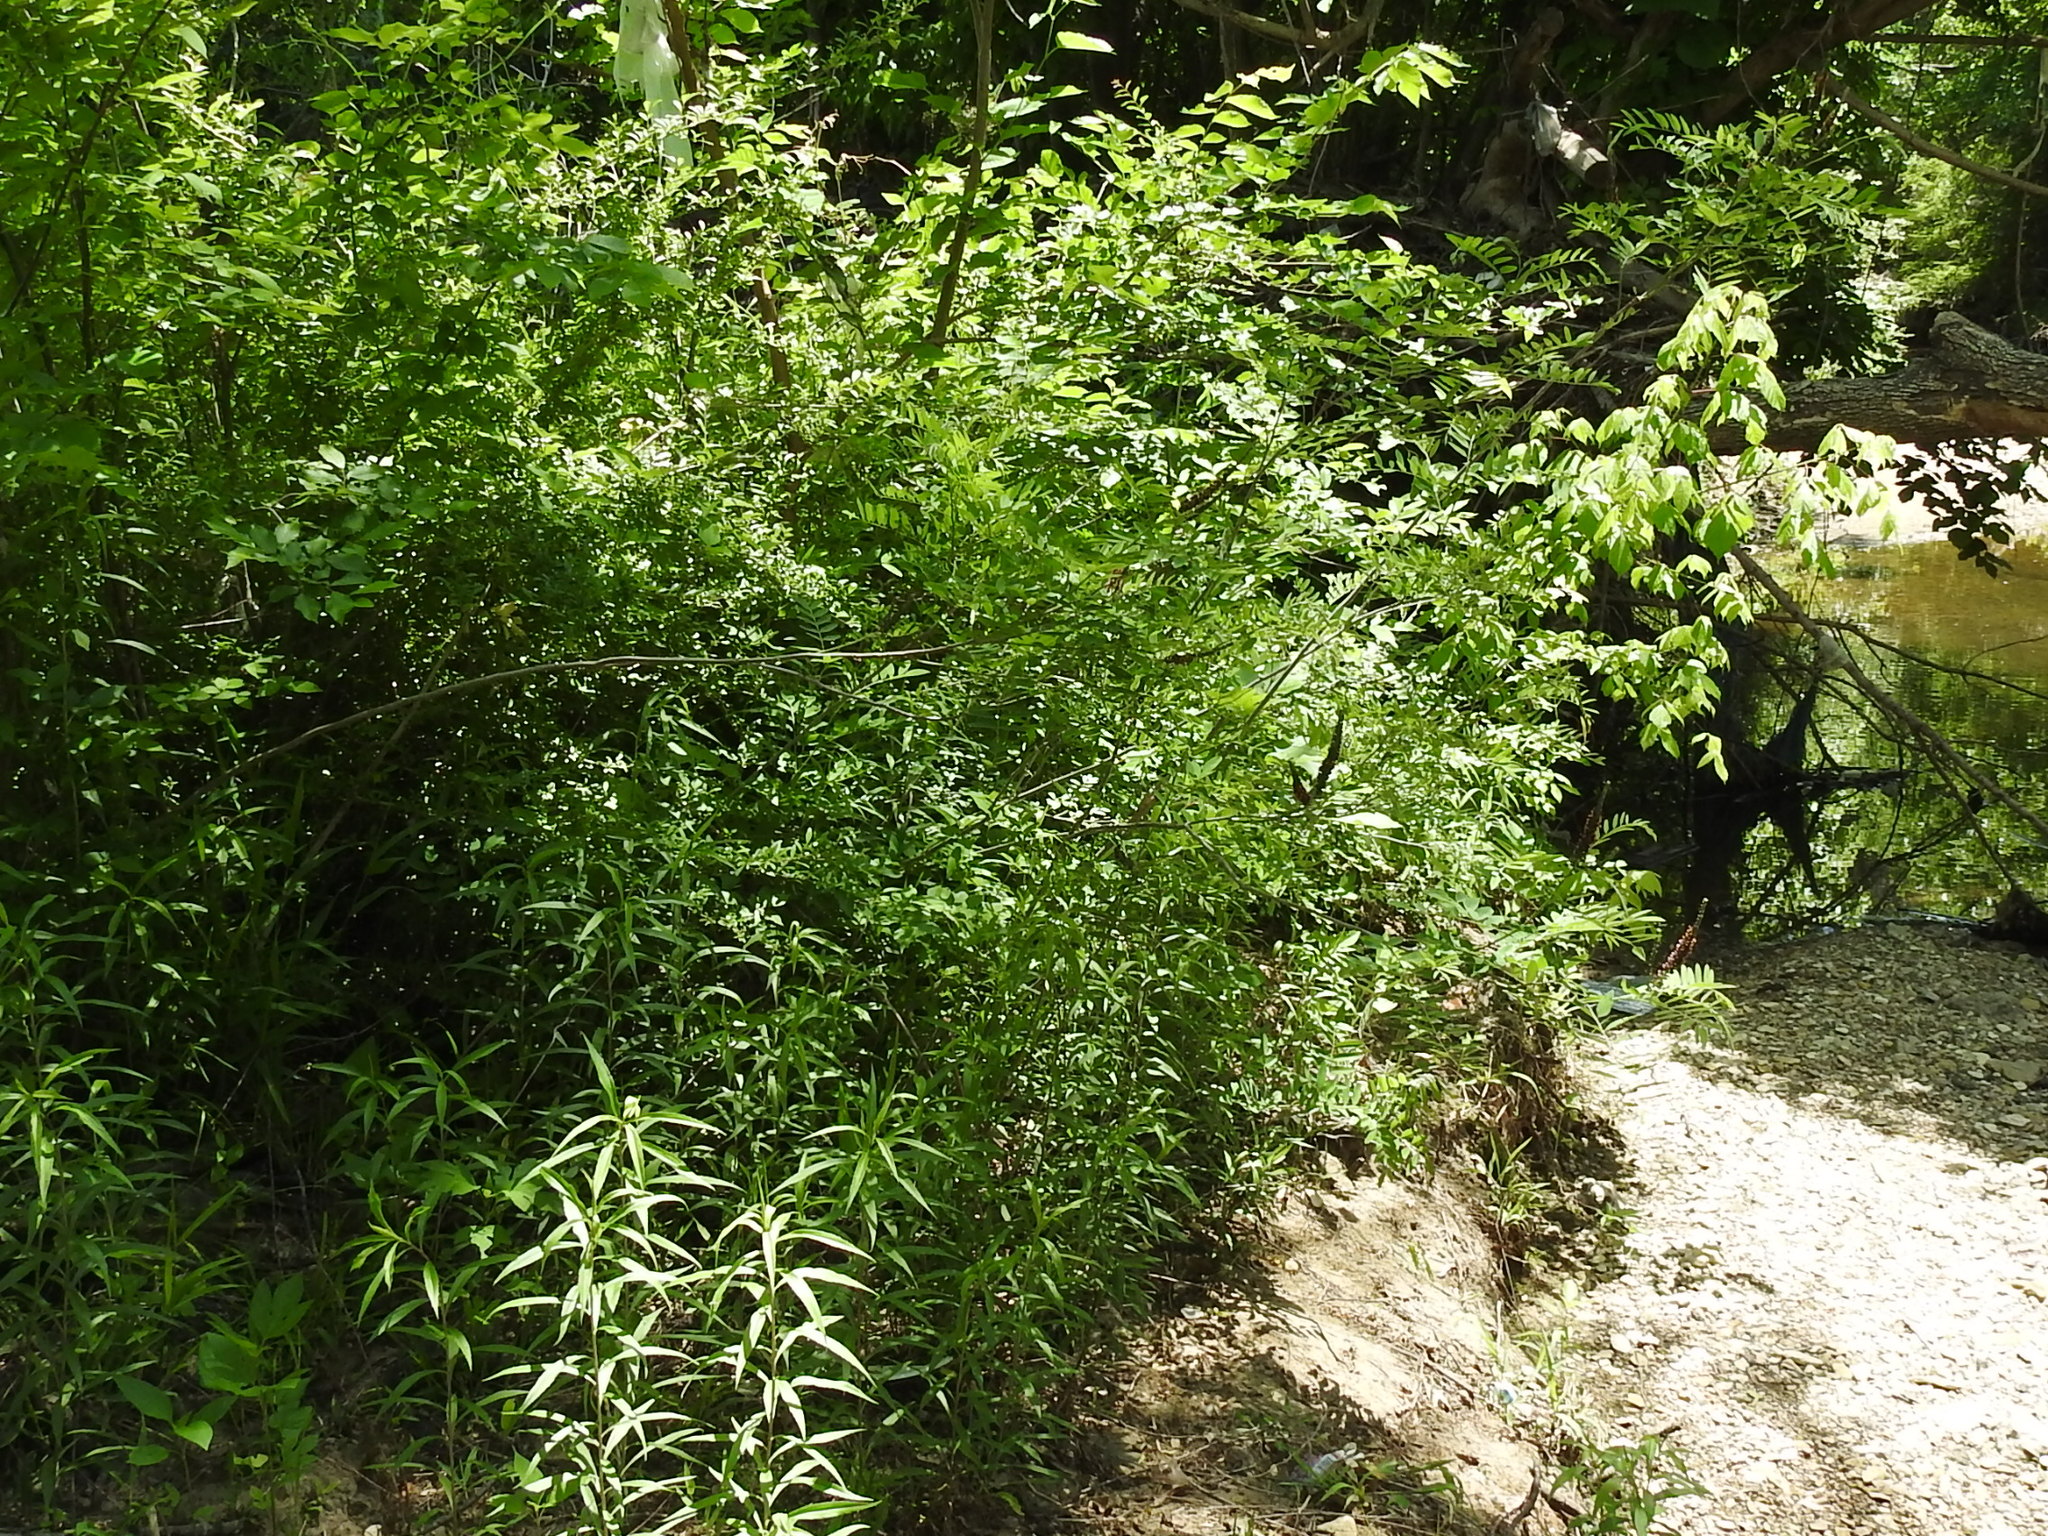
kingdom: Plantae
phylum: Tracheophyta
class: Magnoliopsida
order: Fabales
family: Fabaceae
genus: Amorpha
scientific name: Amorpha fruticosa
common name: False indigo
